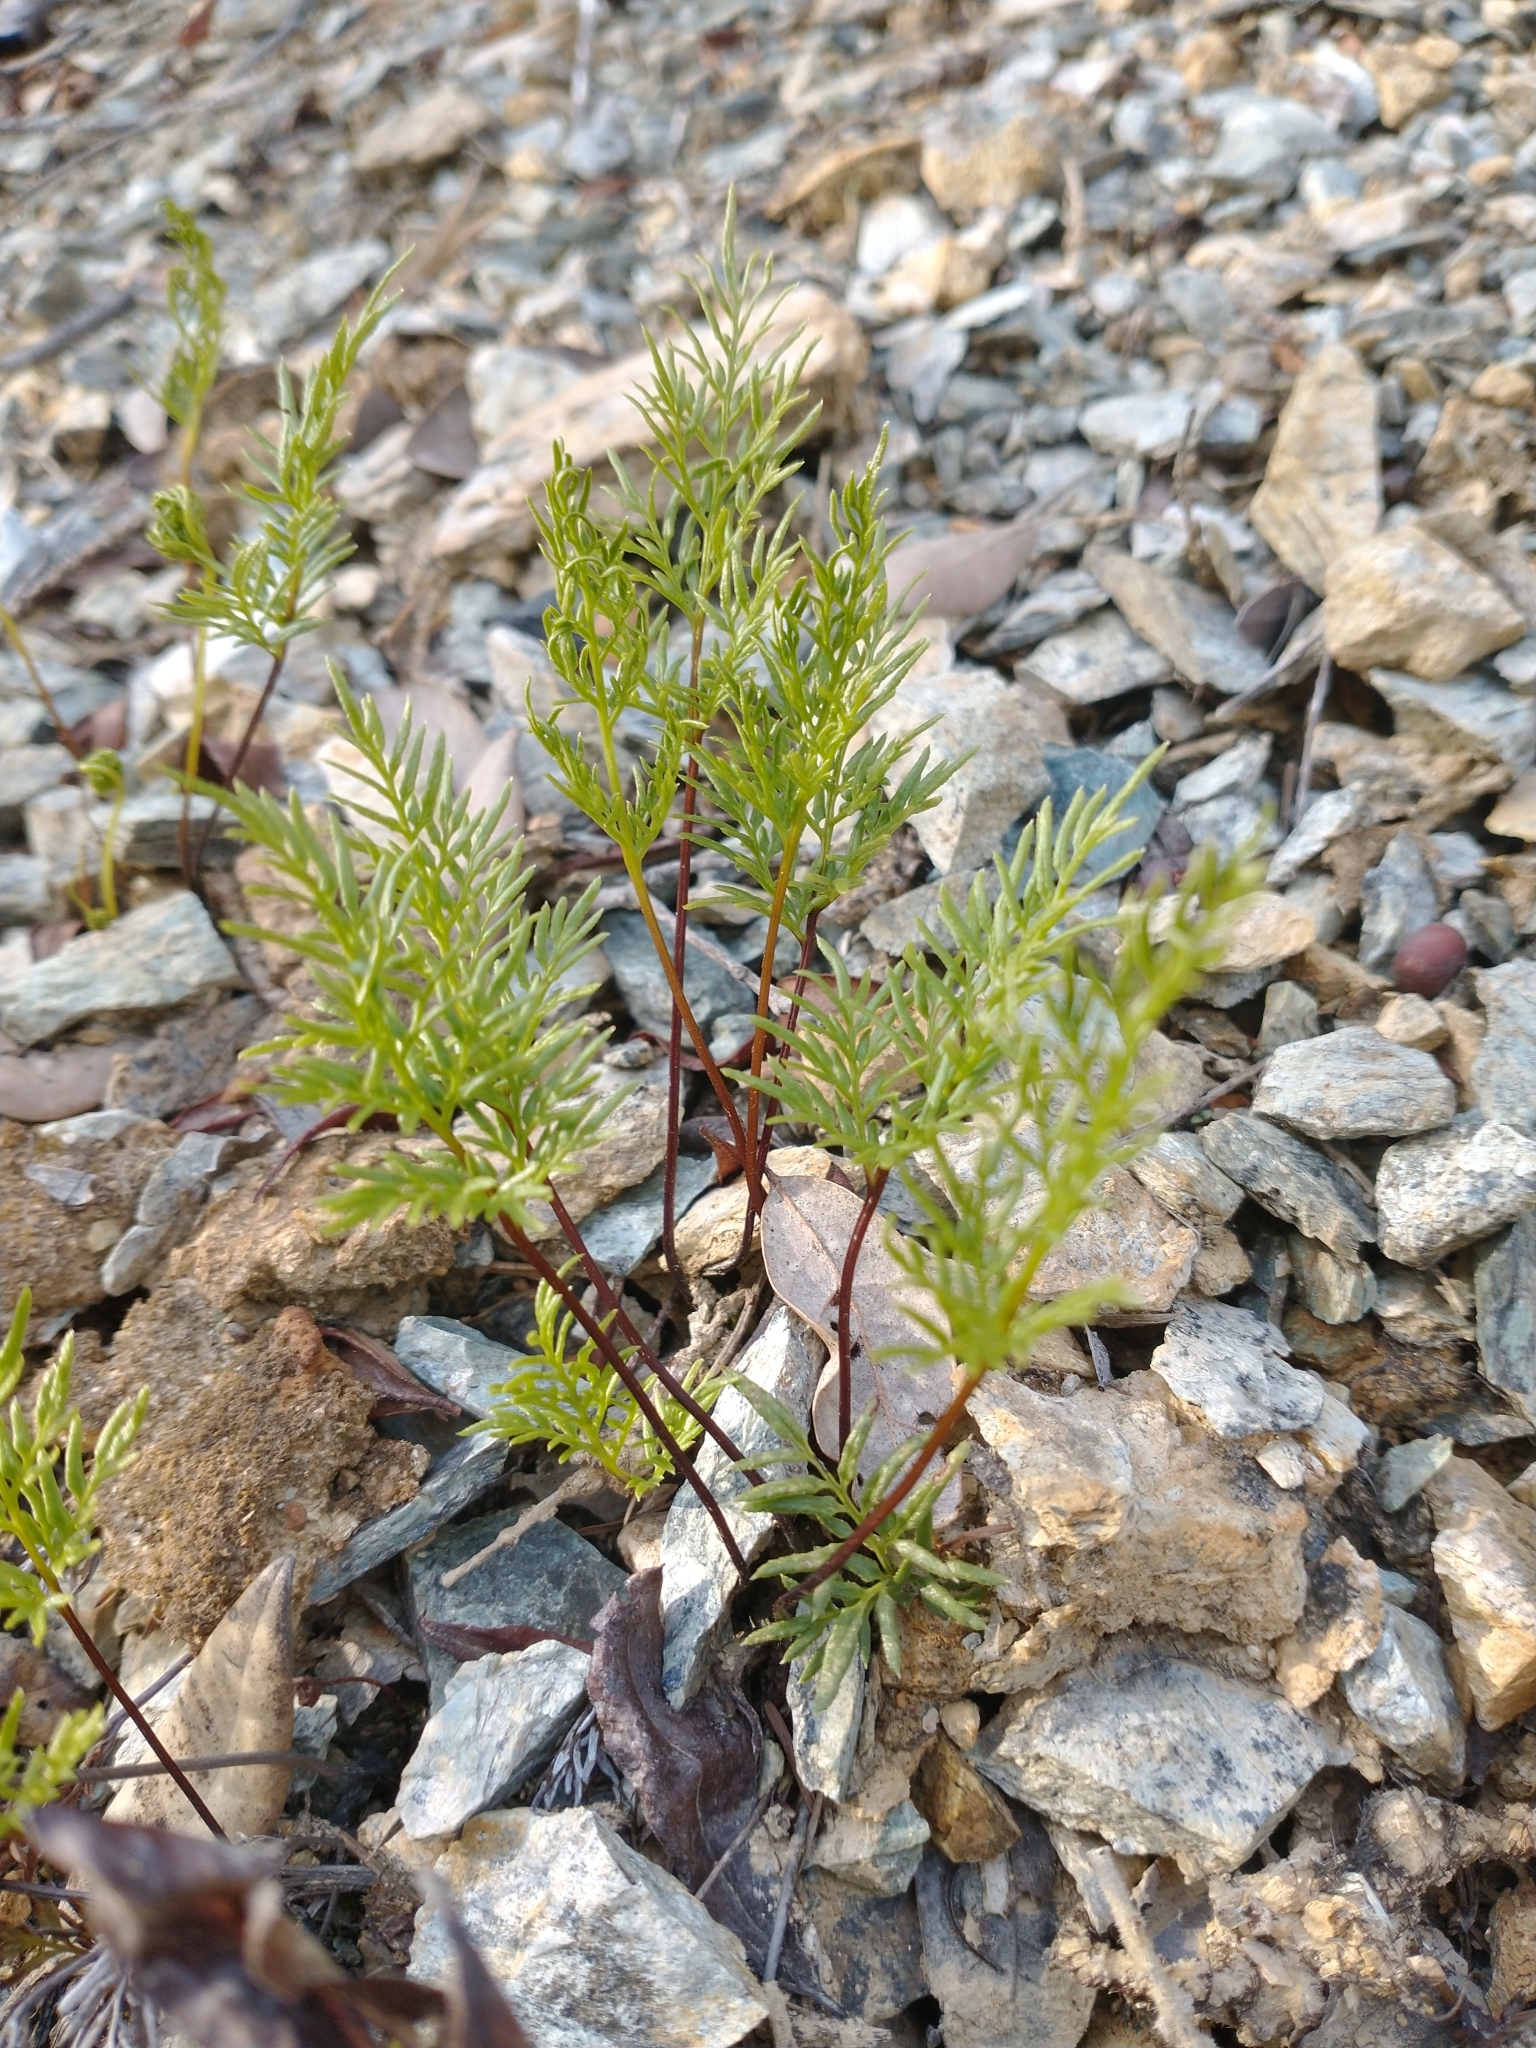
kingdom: Plantae
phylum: Tracheophyta
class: Polypodiopsida
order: Polypodiales
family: Pteridaceae
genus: Aspidotis
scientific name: Aspidotis densa
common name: Indian's dream
